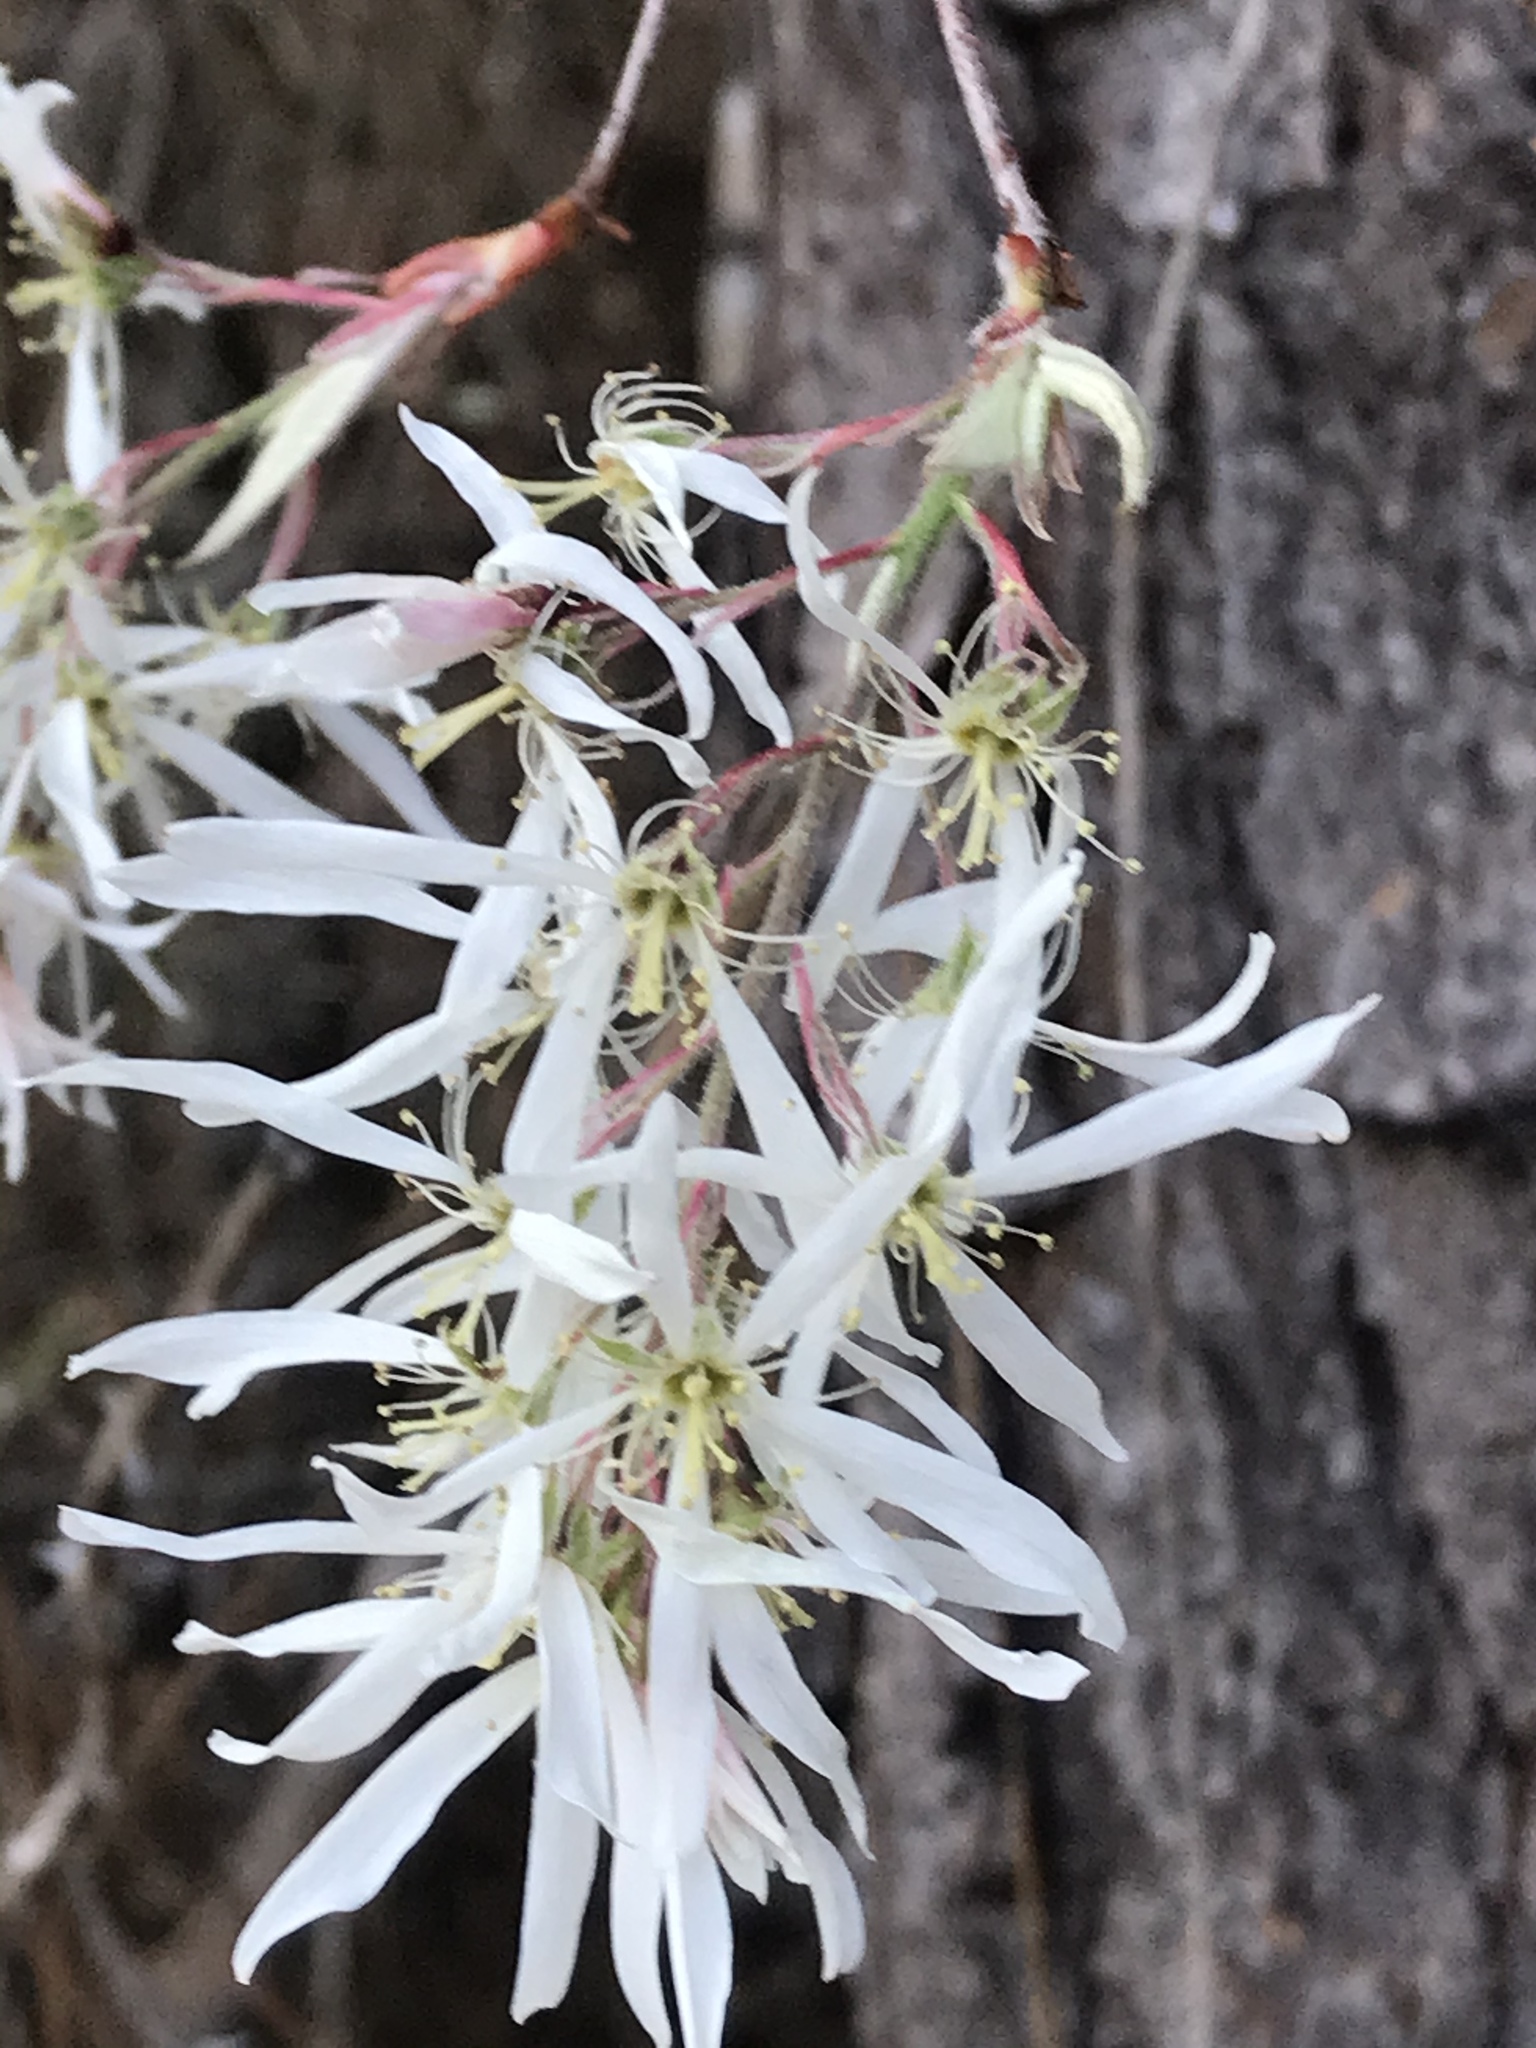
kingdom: Plantae
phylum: Tracheophyta
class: Magnoliopsida
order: Rosales
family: Rosaceae
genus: Amelanchier
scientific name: Amelanchier arborea
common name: Downy serviceberry
